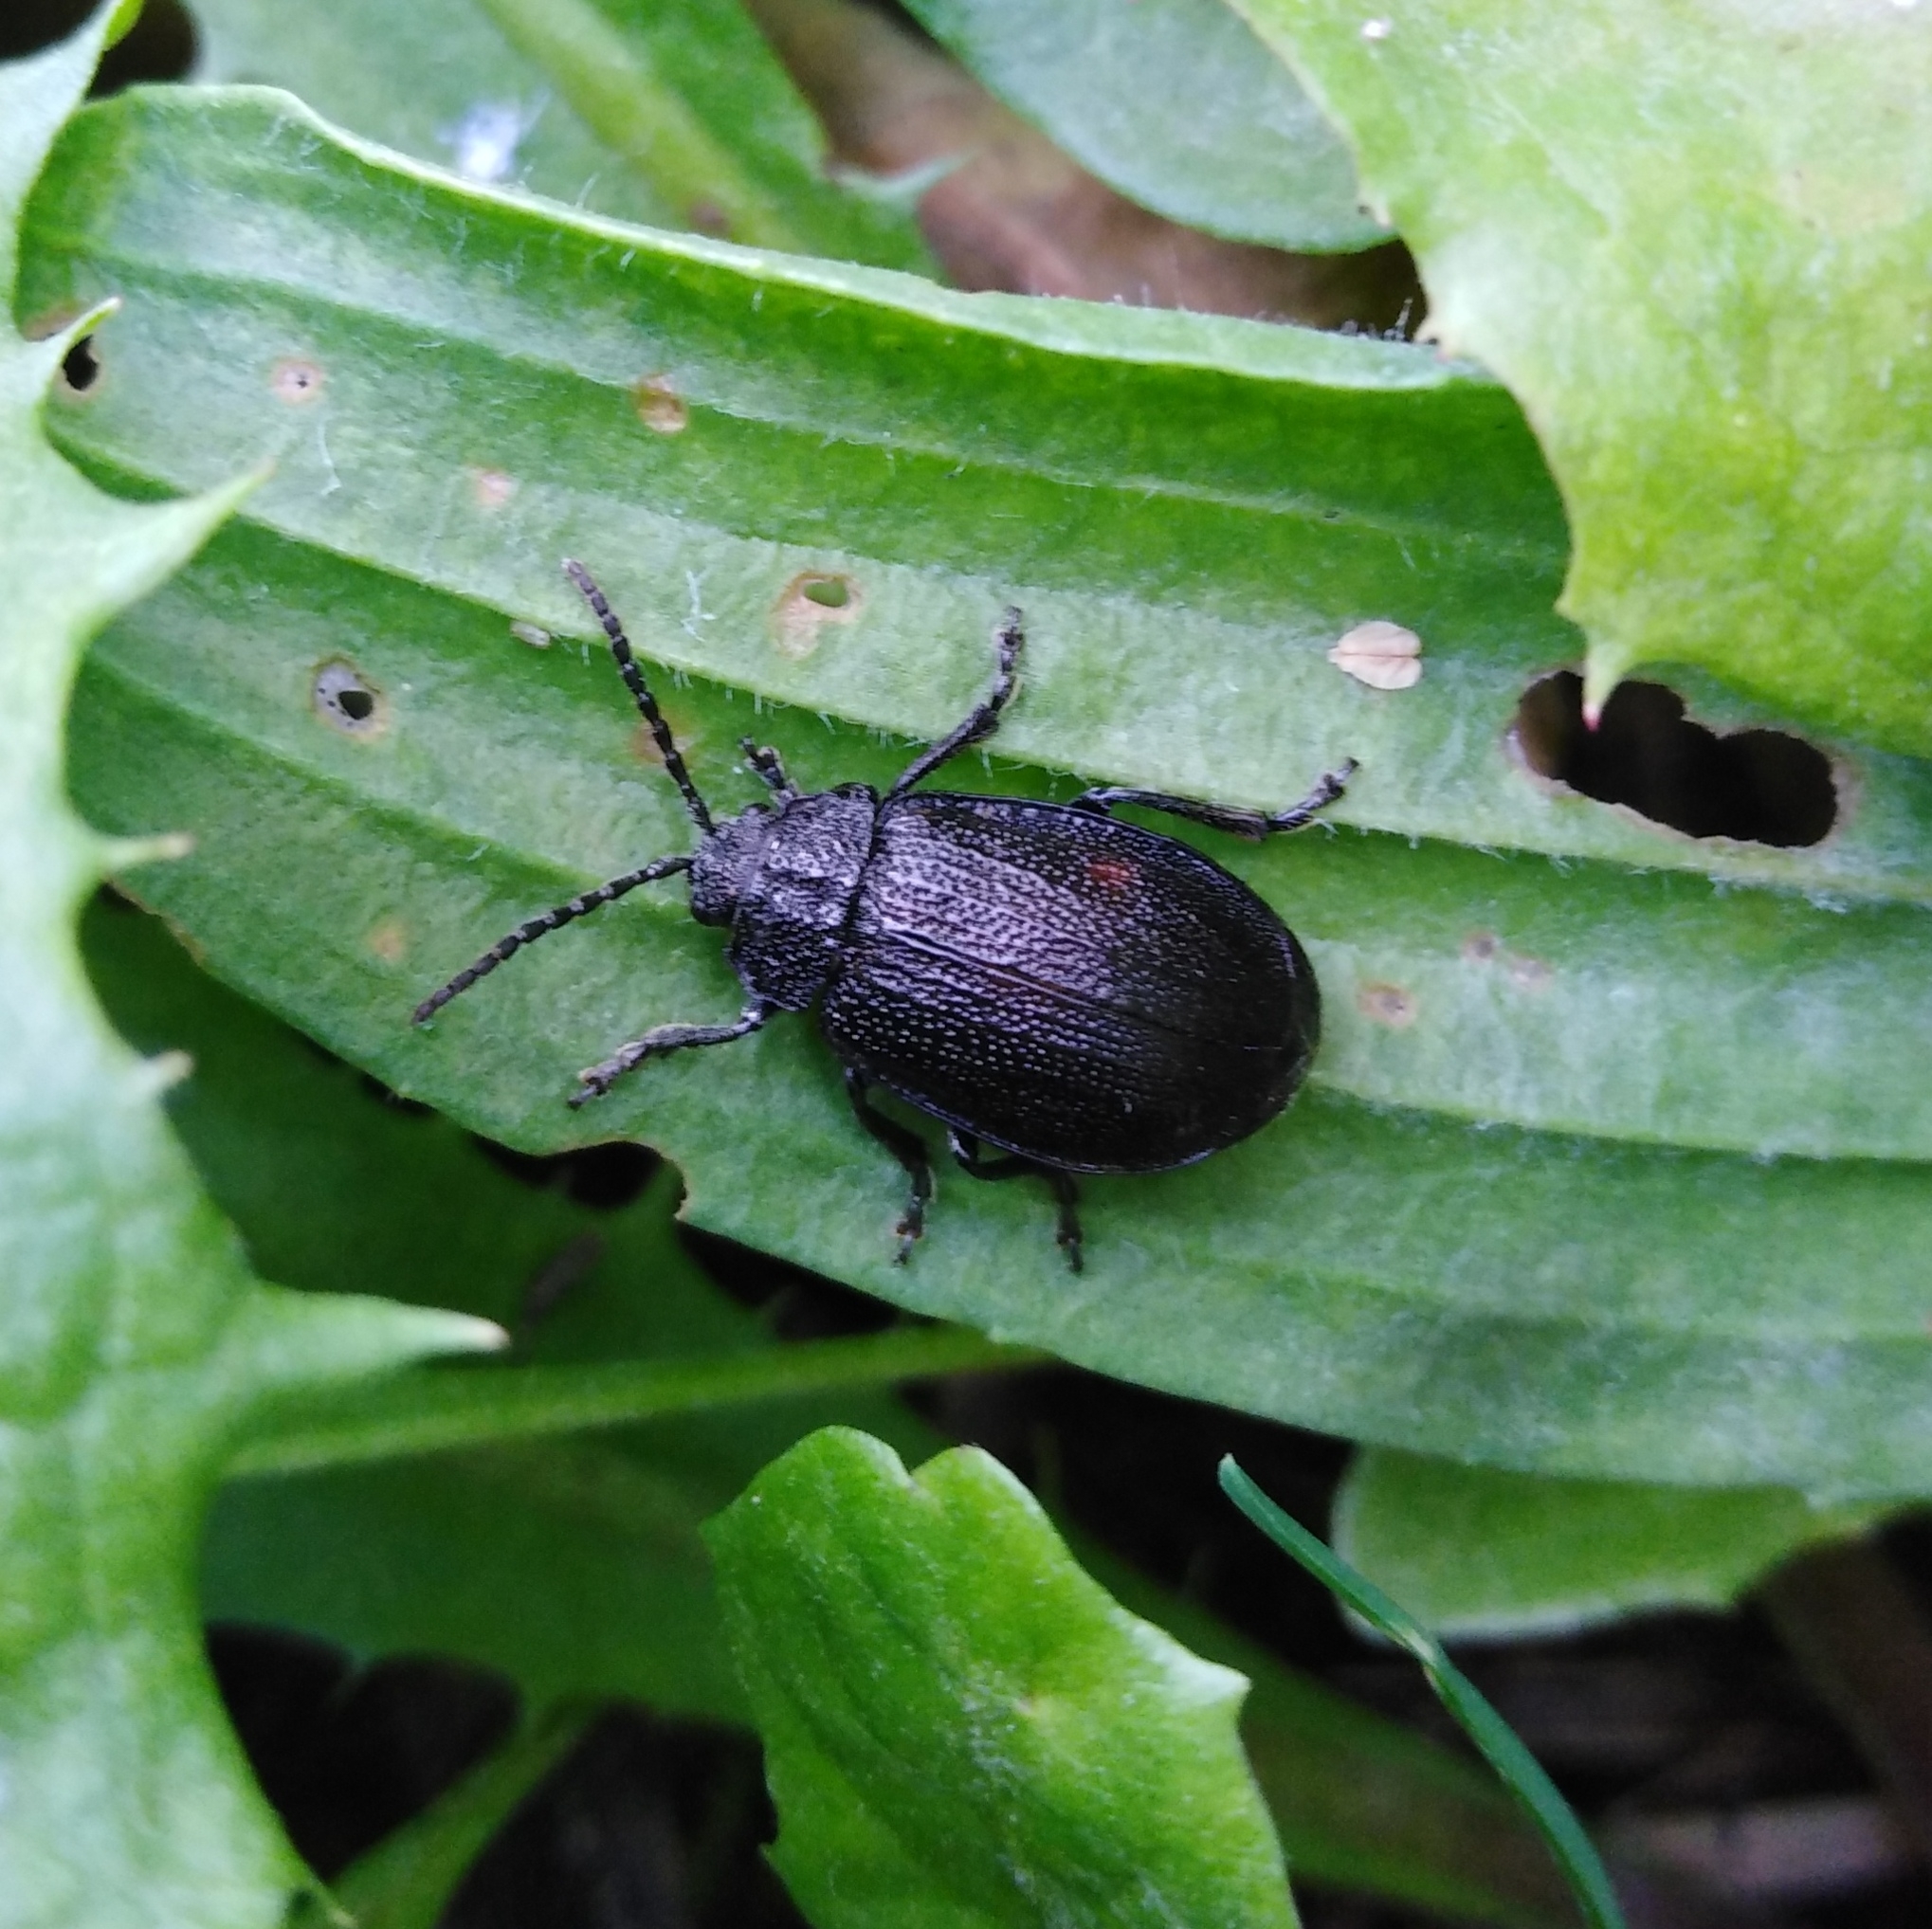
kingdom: Animalia
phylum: Arthropoda
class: Insecta
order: Coleoptera
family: Chrysomelidae
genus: Galeruca
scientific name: Galeruca tanaceti
